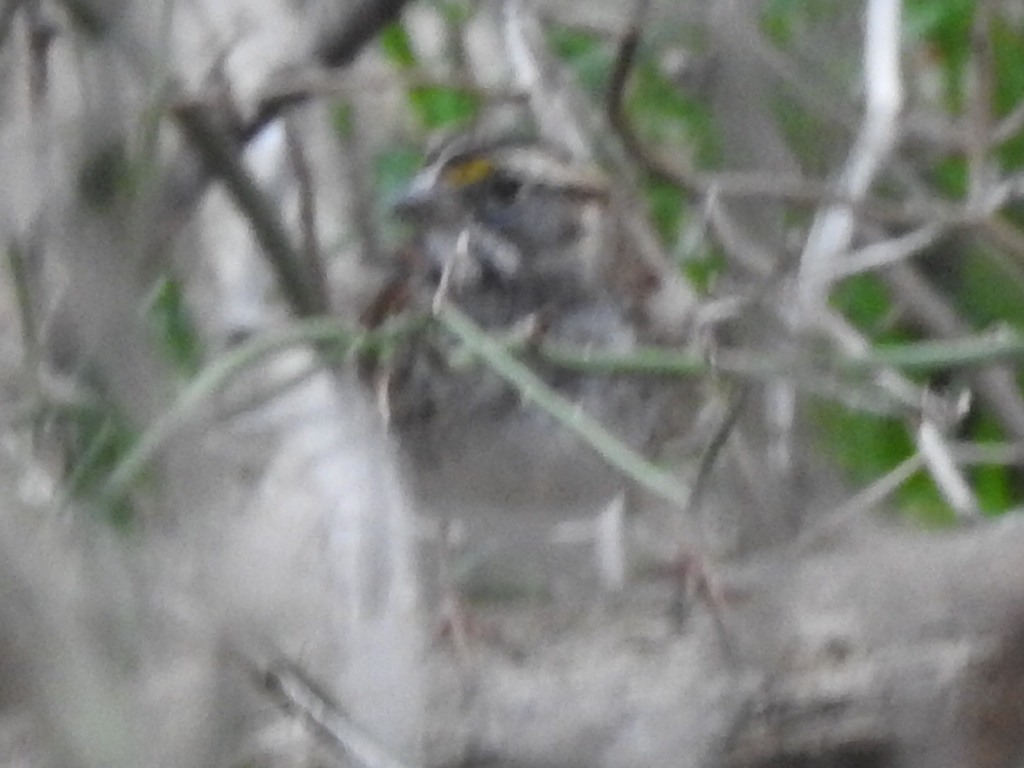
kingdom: Animalia
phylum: Chordata
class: Aves
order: Passeriformes
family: Passerellidae
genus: Zonotrichia
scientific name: Zonotrichia albicollis
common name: White-throated sparrow
